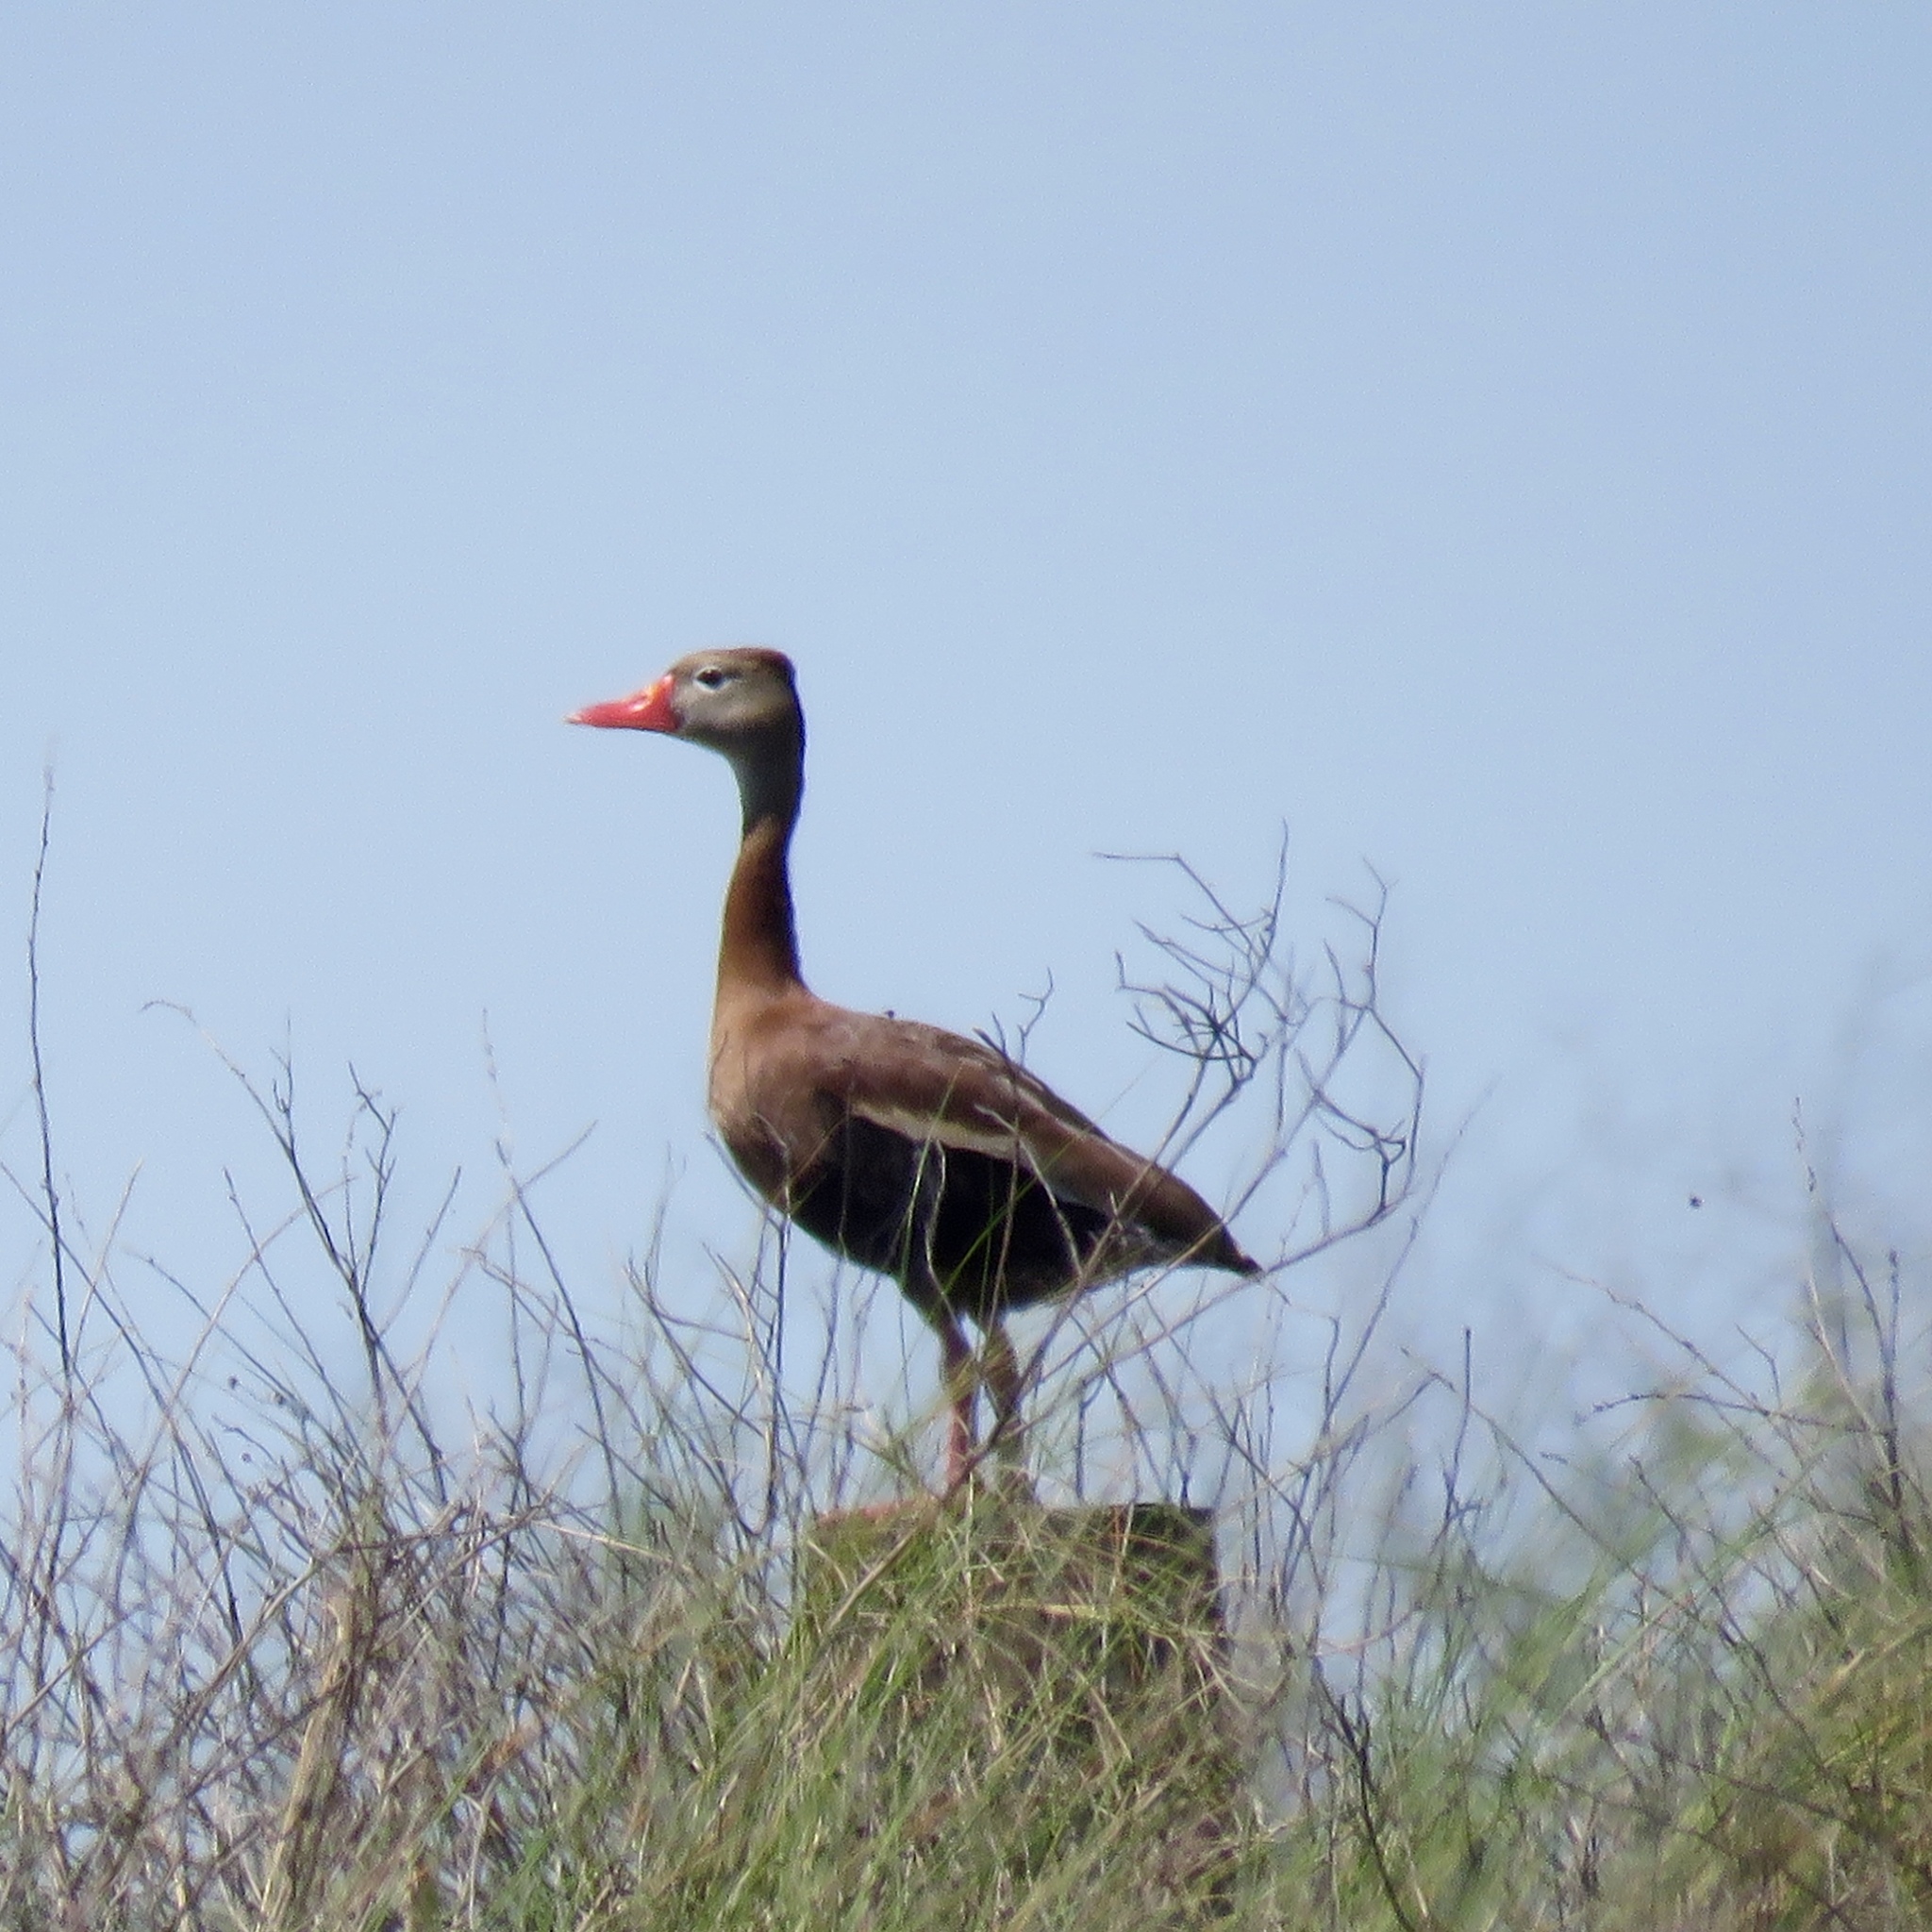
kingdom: Animalia
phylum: Chordata
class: Aves
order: Anseriformes
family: Anatidae
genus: Dendrocygna
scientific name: Dendrocygna autumnalis
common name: Black-bellied whistling duck
